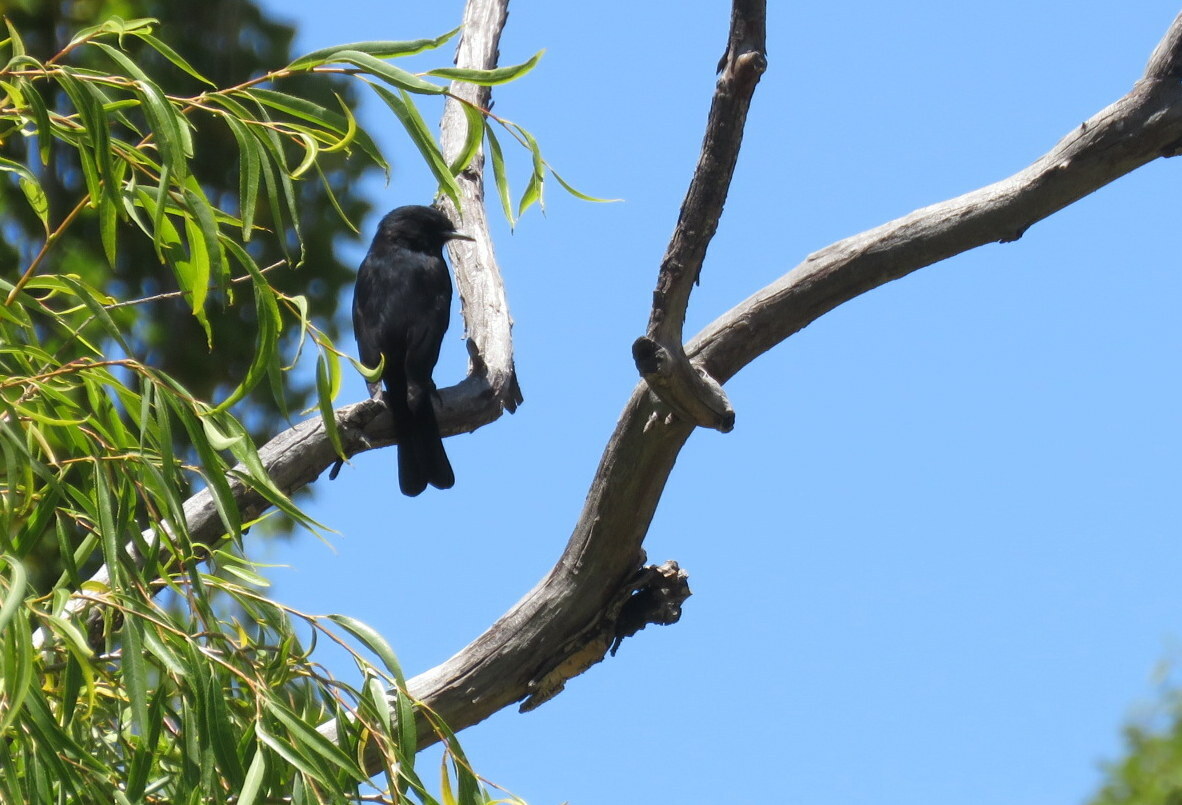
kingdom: Animalia
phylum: Chordata
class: Aves
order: Passeriformes
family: Tyrannidae
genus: Knipolegus
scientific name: Knipolegus aterrimus
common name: White-winged black tyrant
